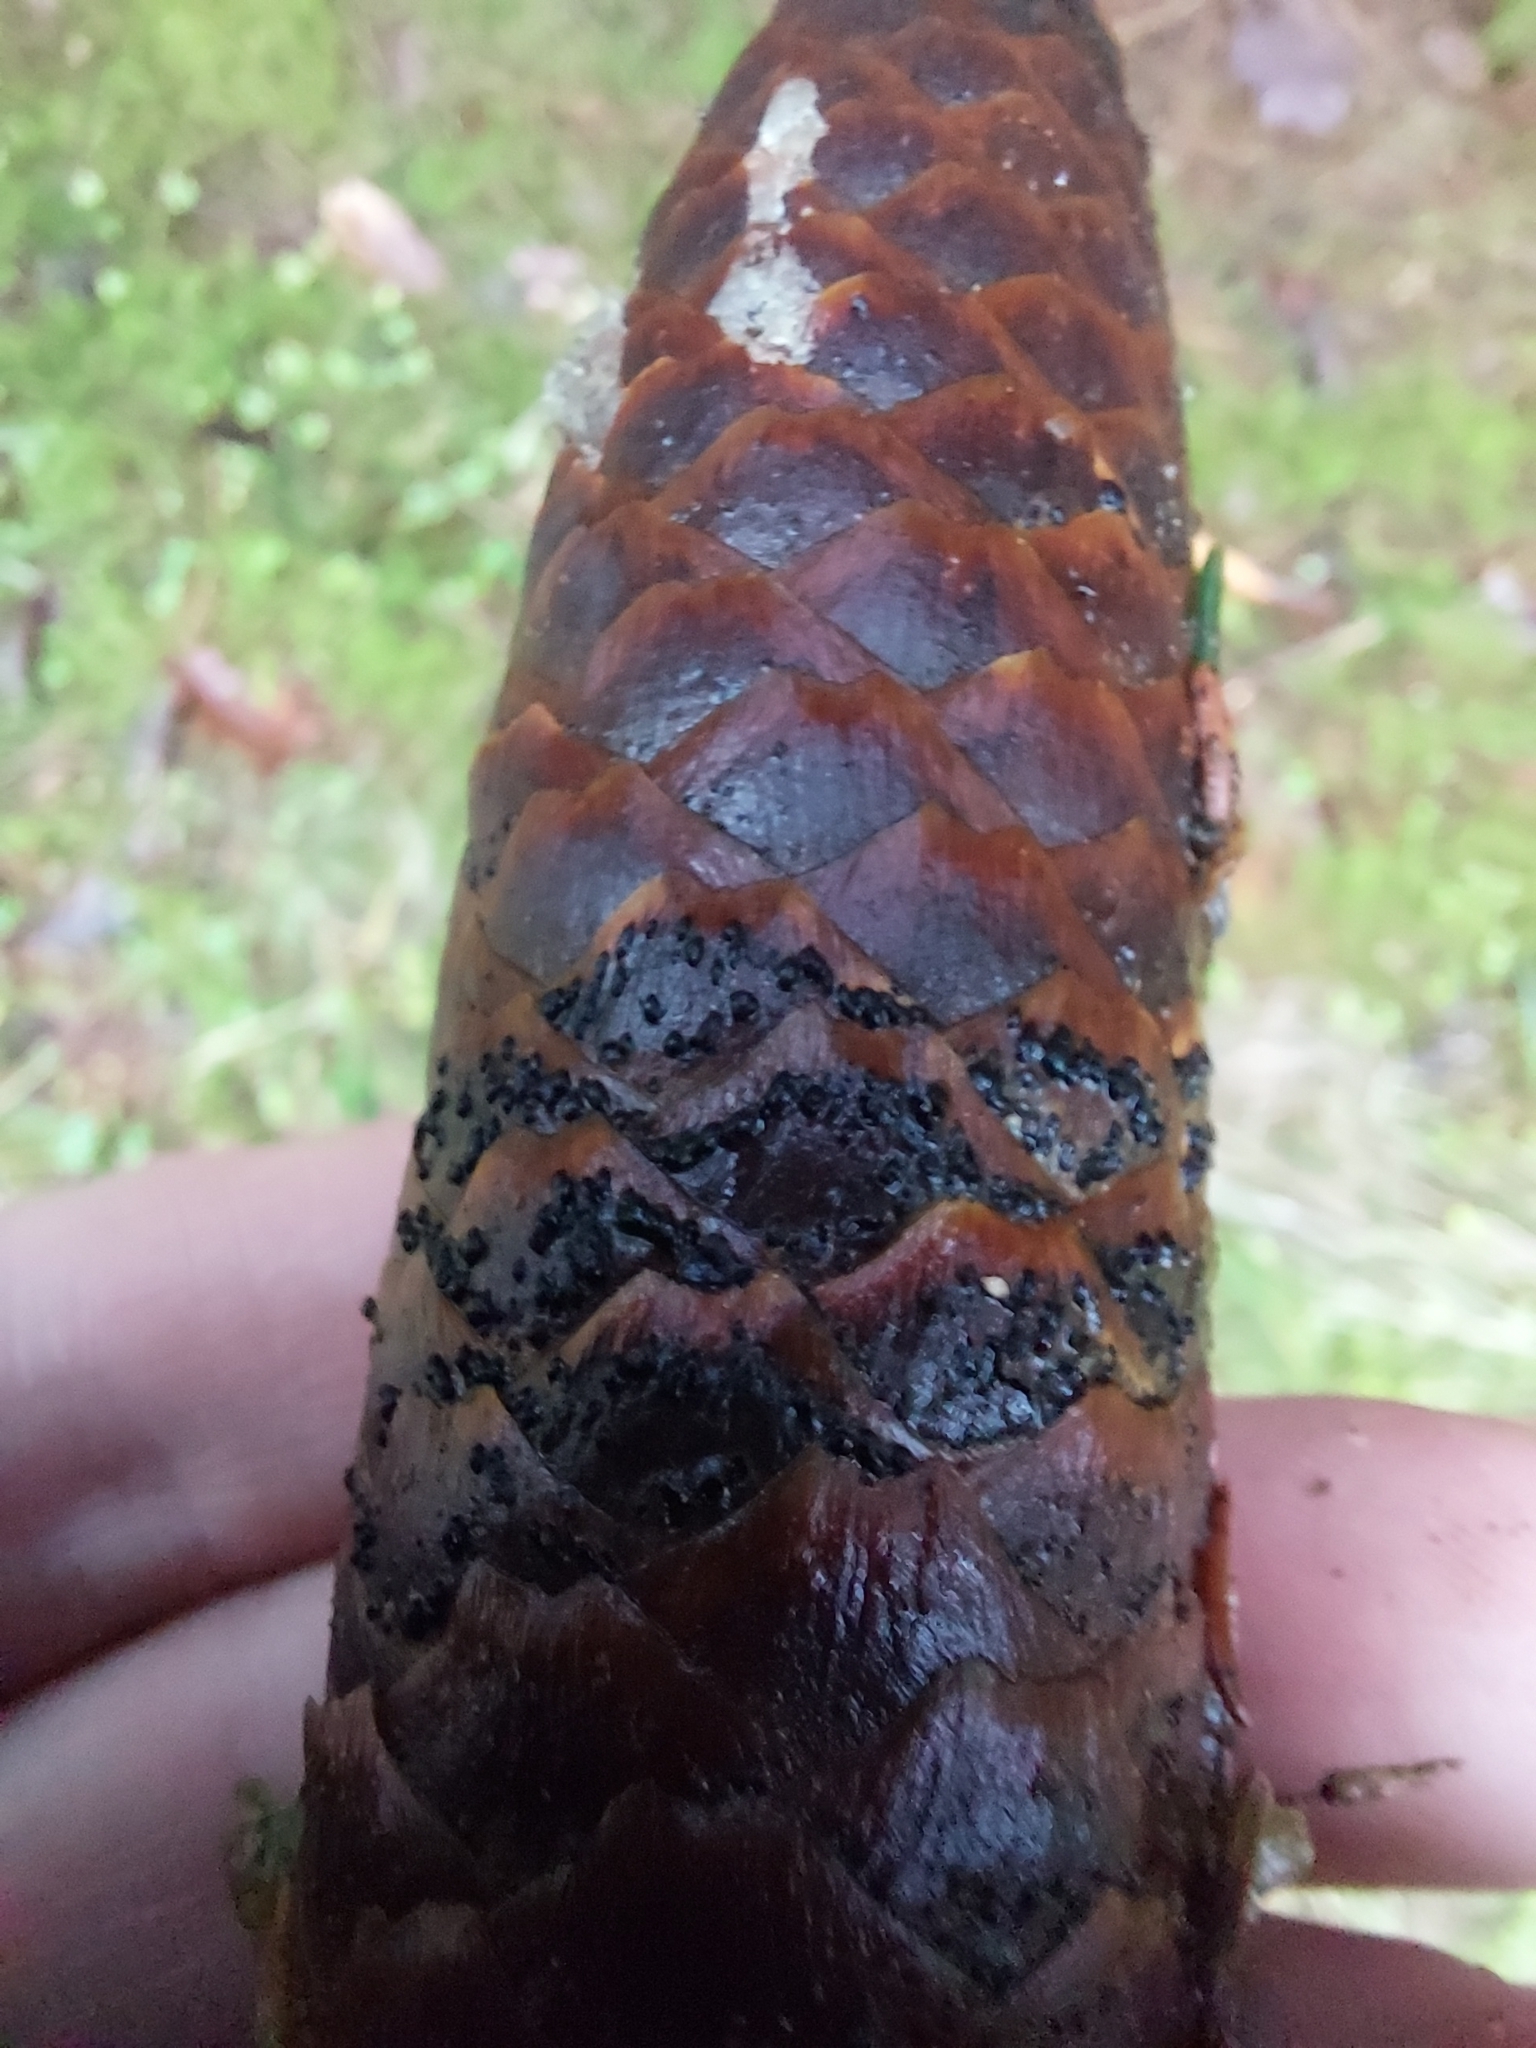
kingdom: Fungi
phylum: Ascomycota
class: Dothideomycetes
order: Pleosporales
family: Melanommataceae
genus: Phragmotrichum
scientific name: Phragmotrichum chailletii
